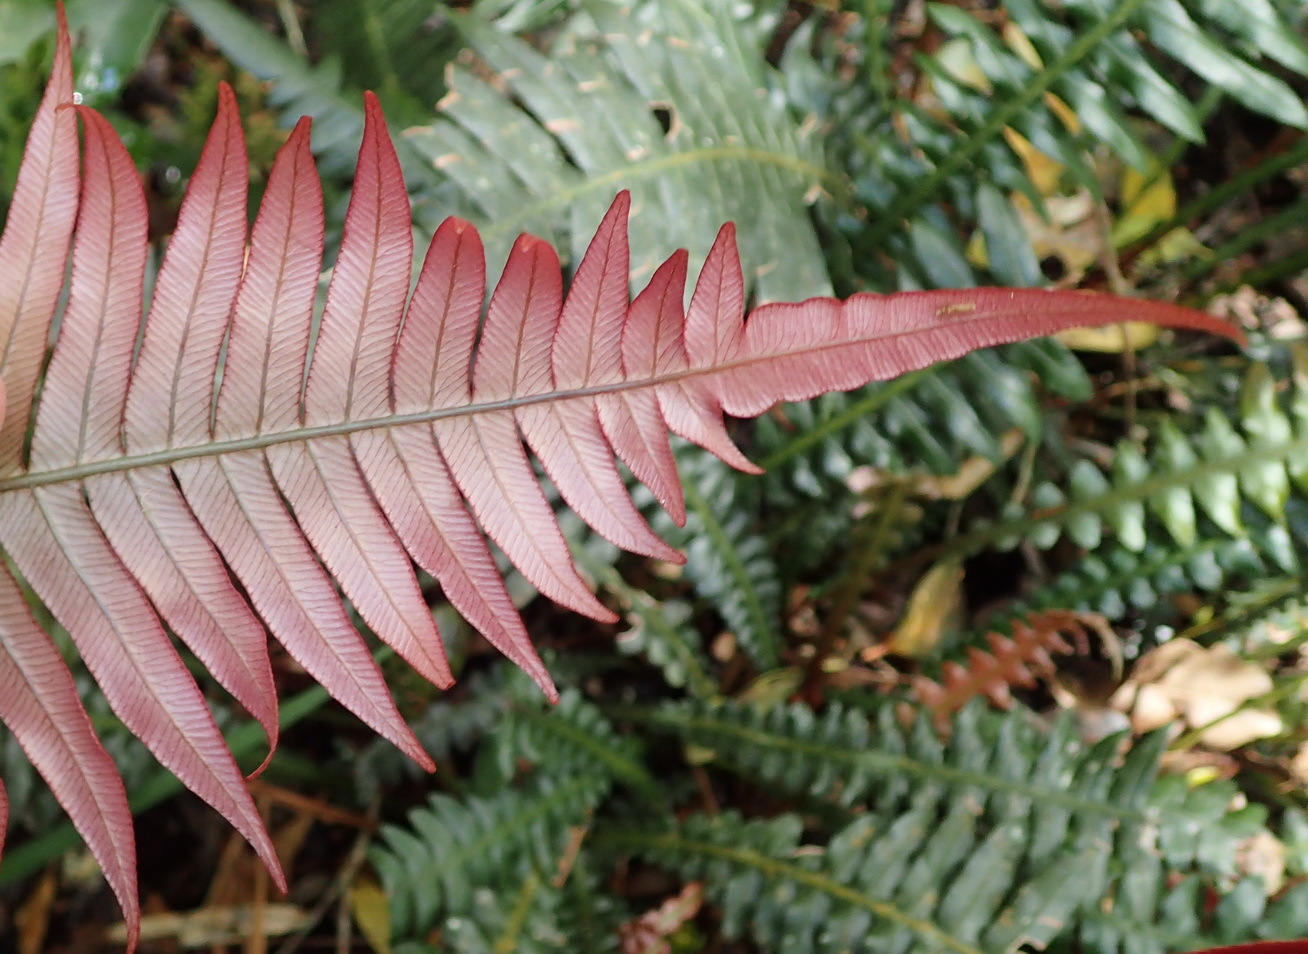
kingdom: Plantae
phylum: Tracheophyta
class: Polypodiopsida
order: Polypodiales
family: Blechnaceae
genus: Blechnum
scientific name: Blechnum punctulatum
